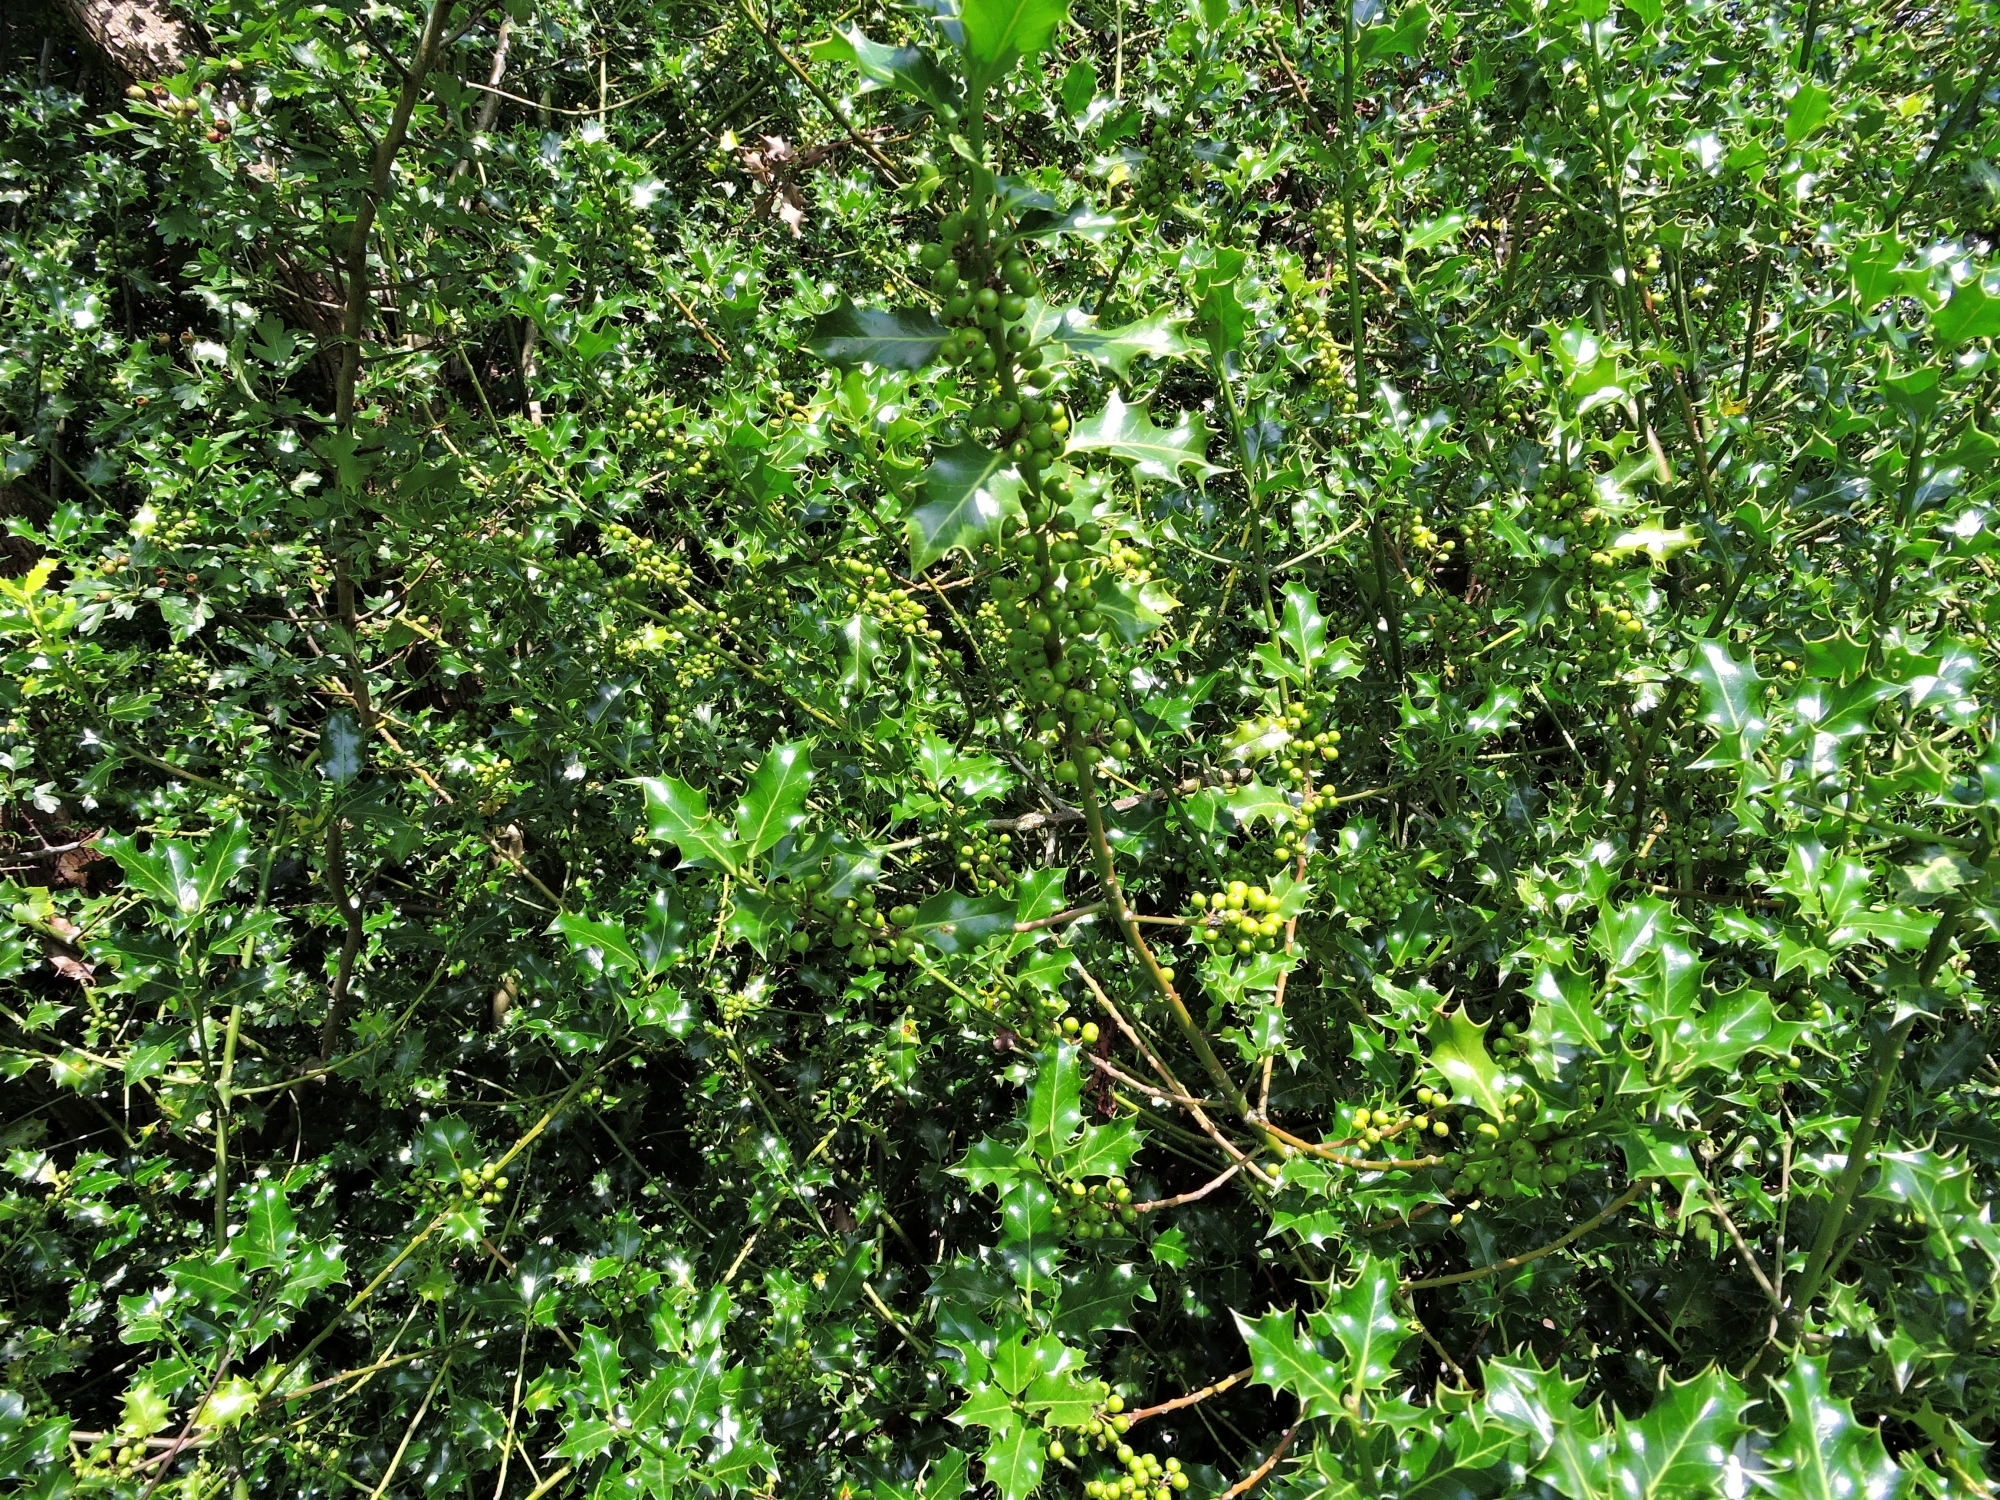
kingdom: Plantae
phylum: Tracheophyta
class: Magnoliopsida
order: Aquifoliales
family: Aquifoliaceae
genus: Ilex
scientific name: Ilex aquifolium
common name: English holly
